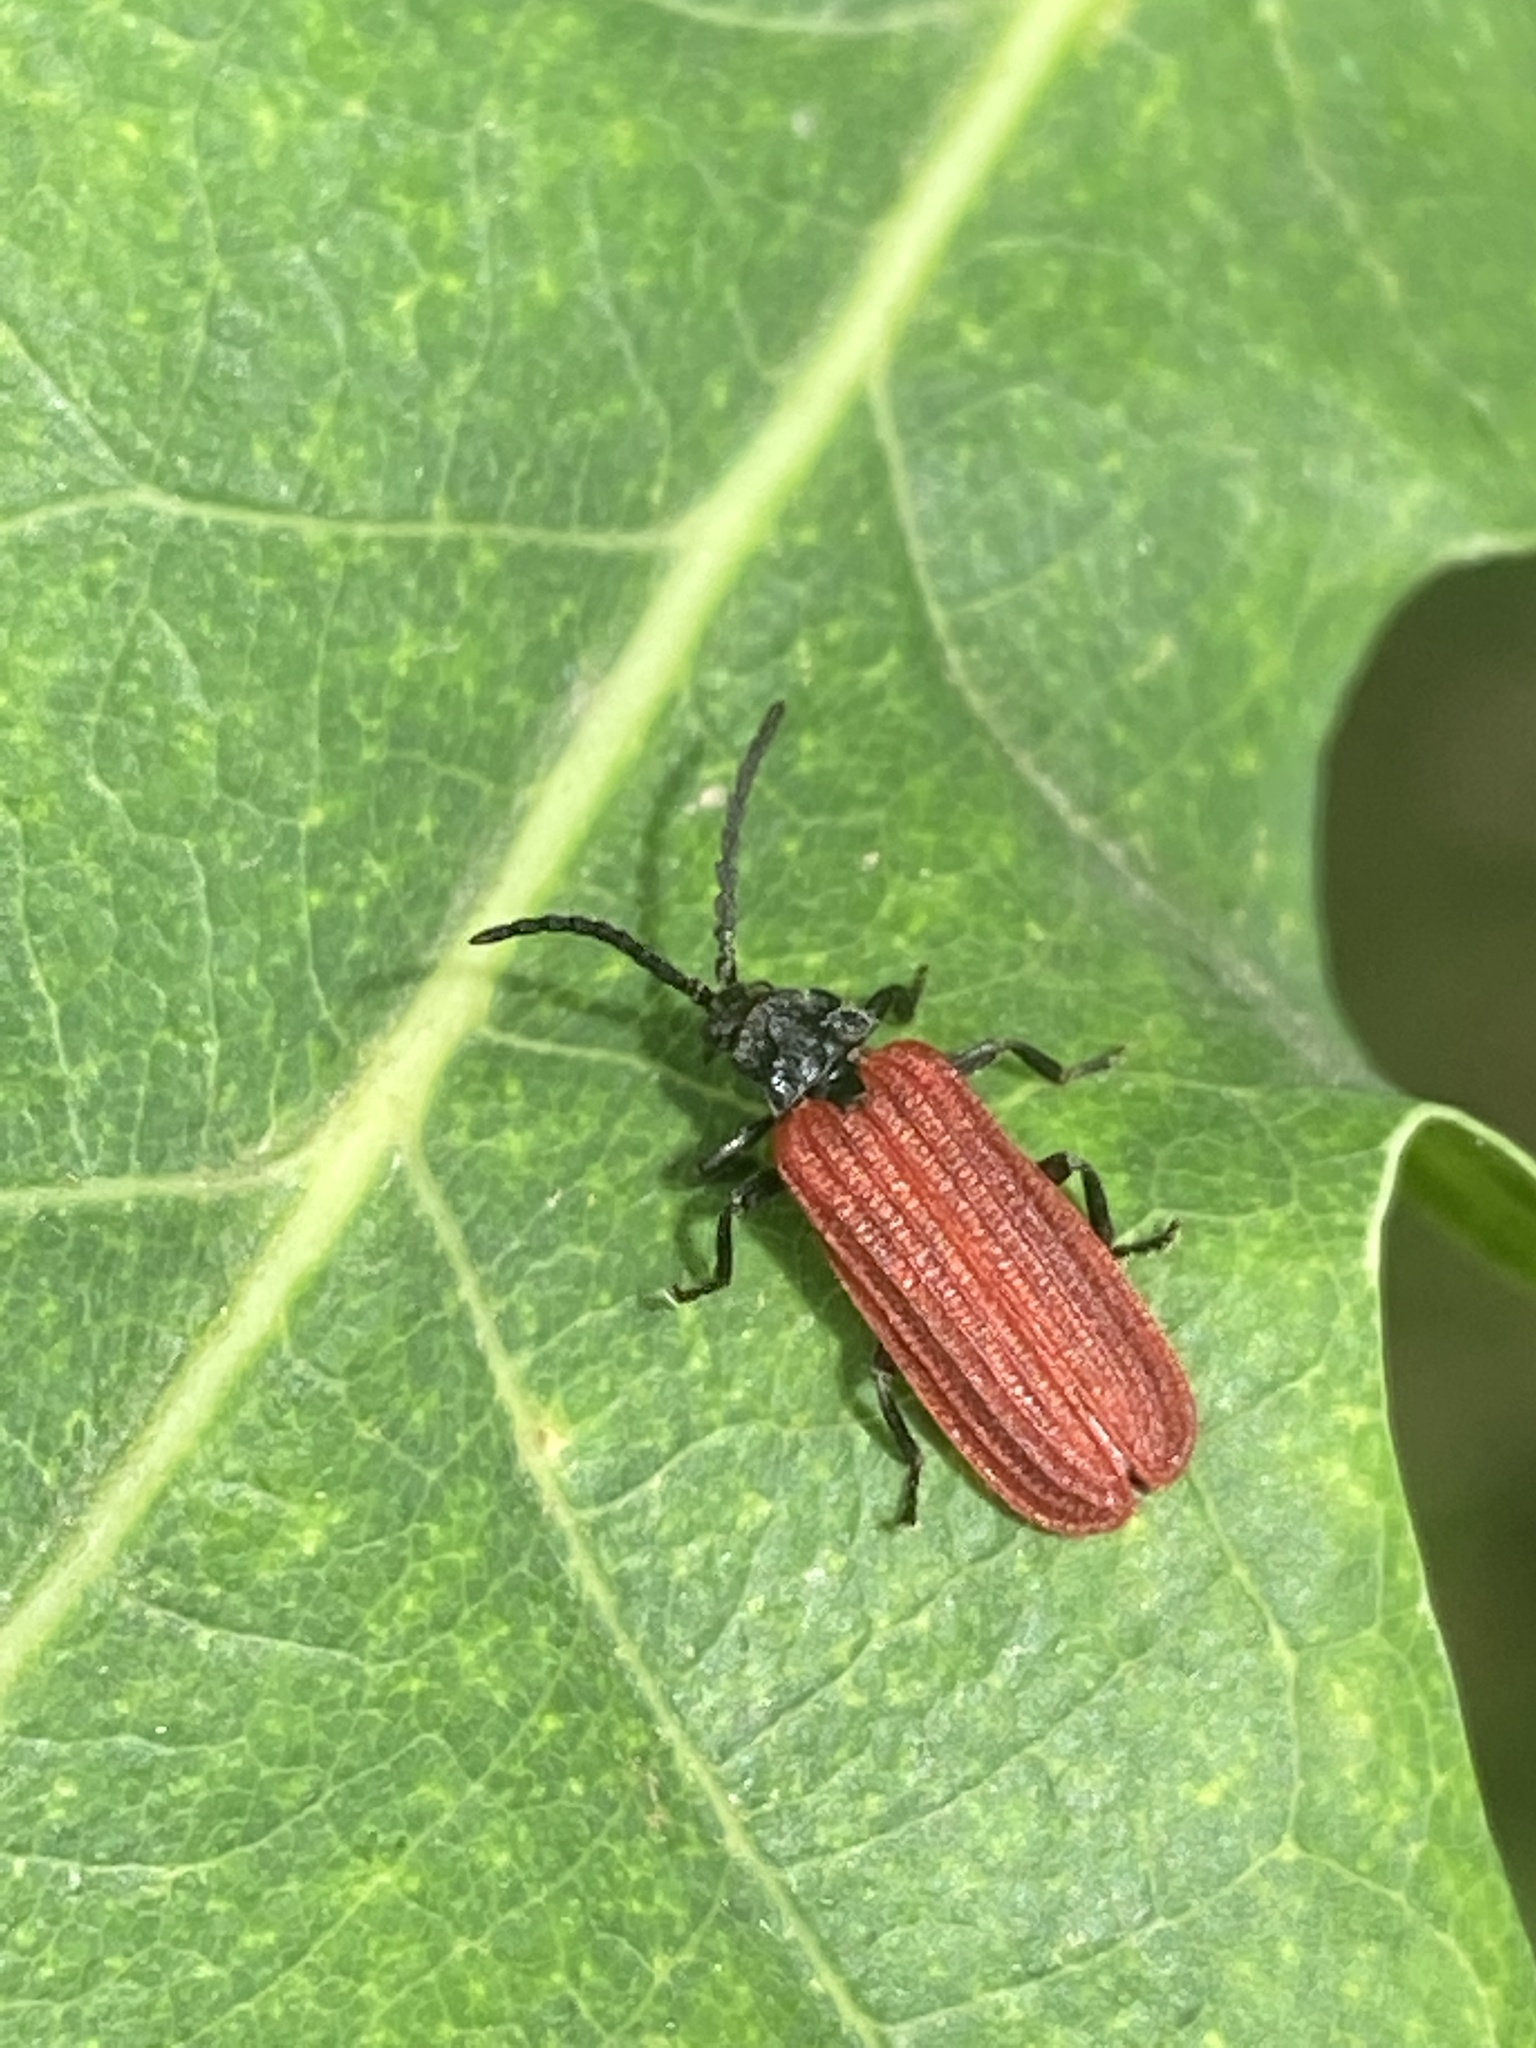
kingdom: Animalia
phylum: Arthropoda
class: Insecta
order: Coleoptera
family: Lycidae
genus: Pyropterus
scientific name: Pyropterus nigroruber
